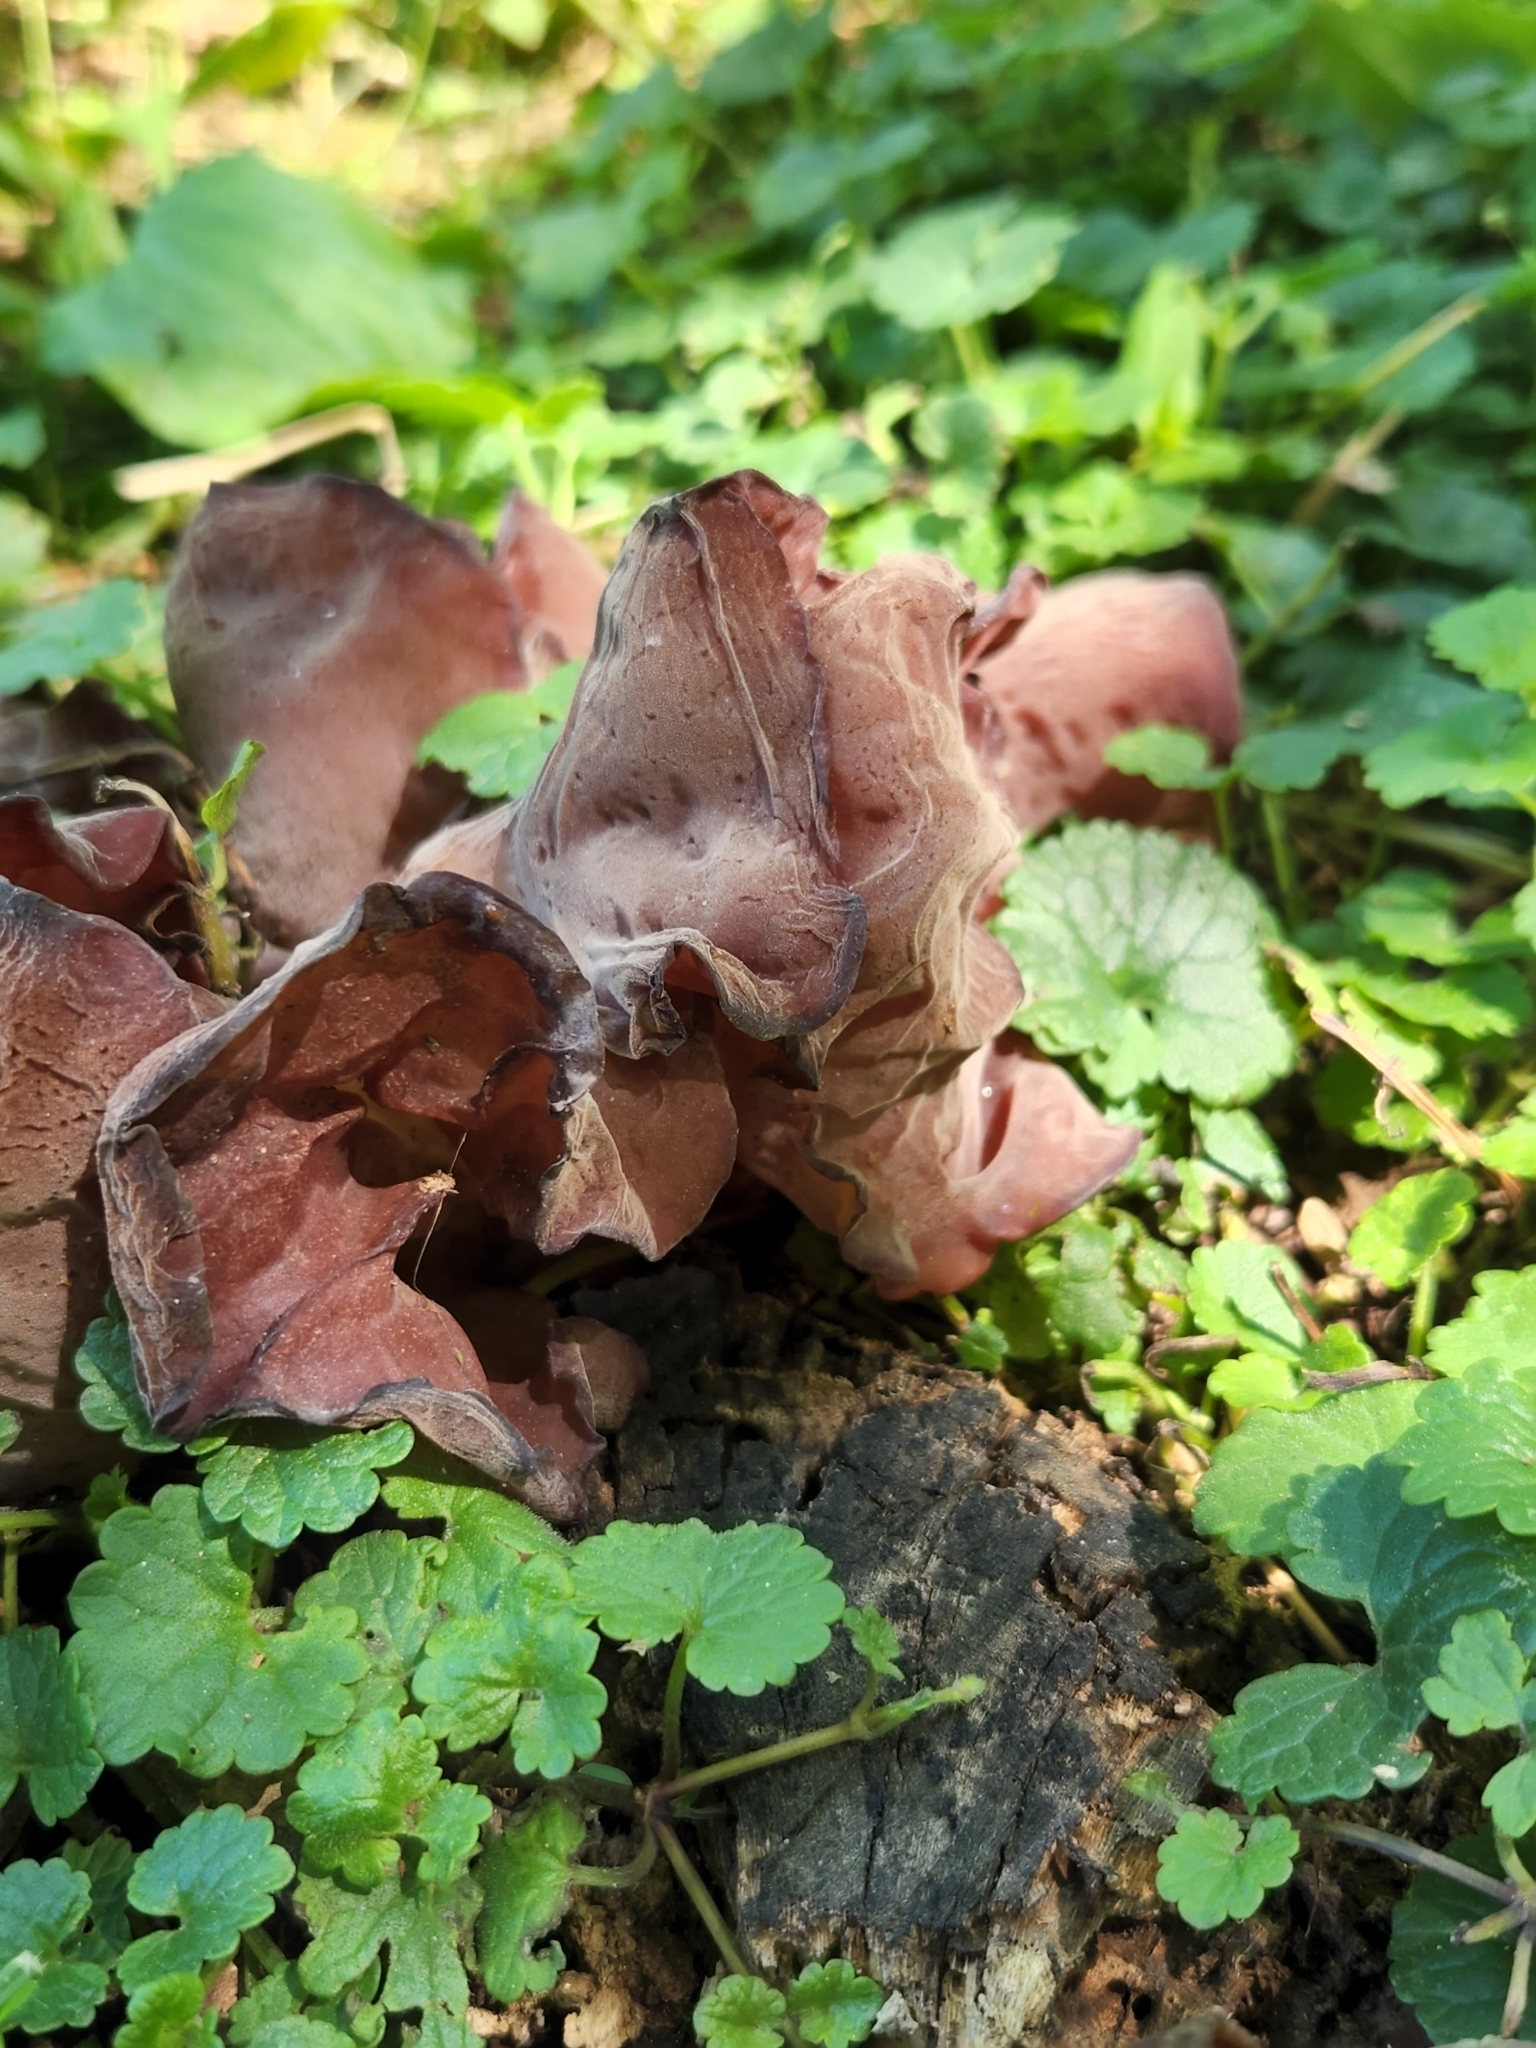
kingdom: Fungi
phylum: Basidiomycota
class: Agaricomycetes
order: Auriculariales
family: Auriculariaceae
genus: Auricularia
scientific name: Auricularia americana
